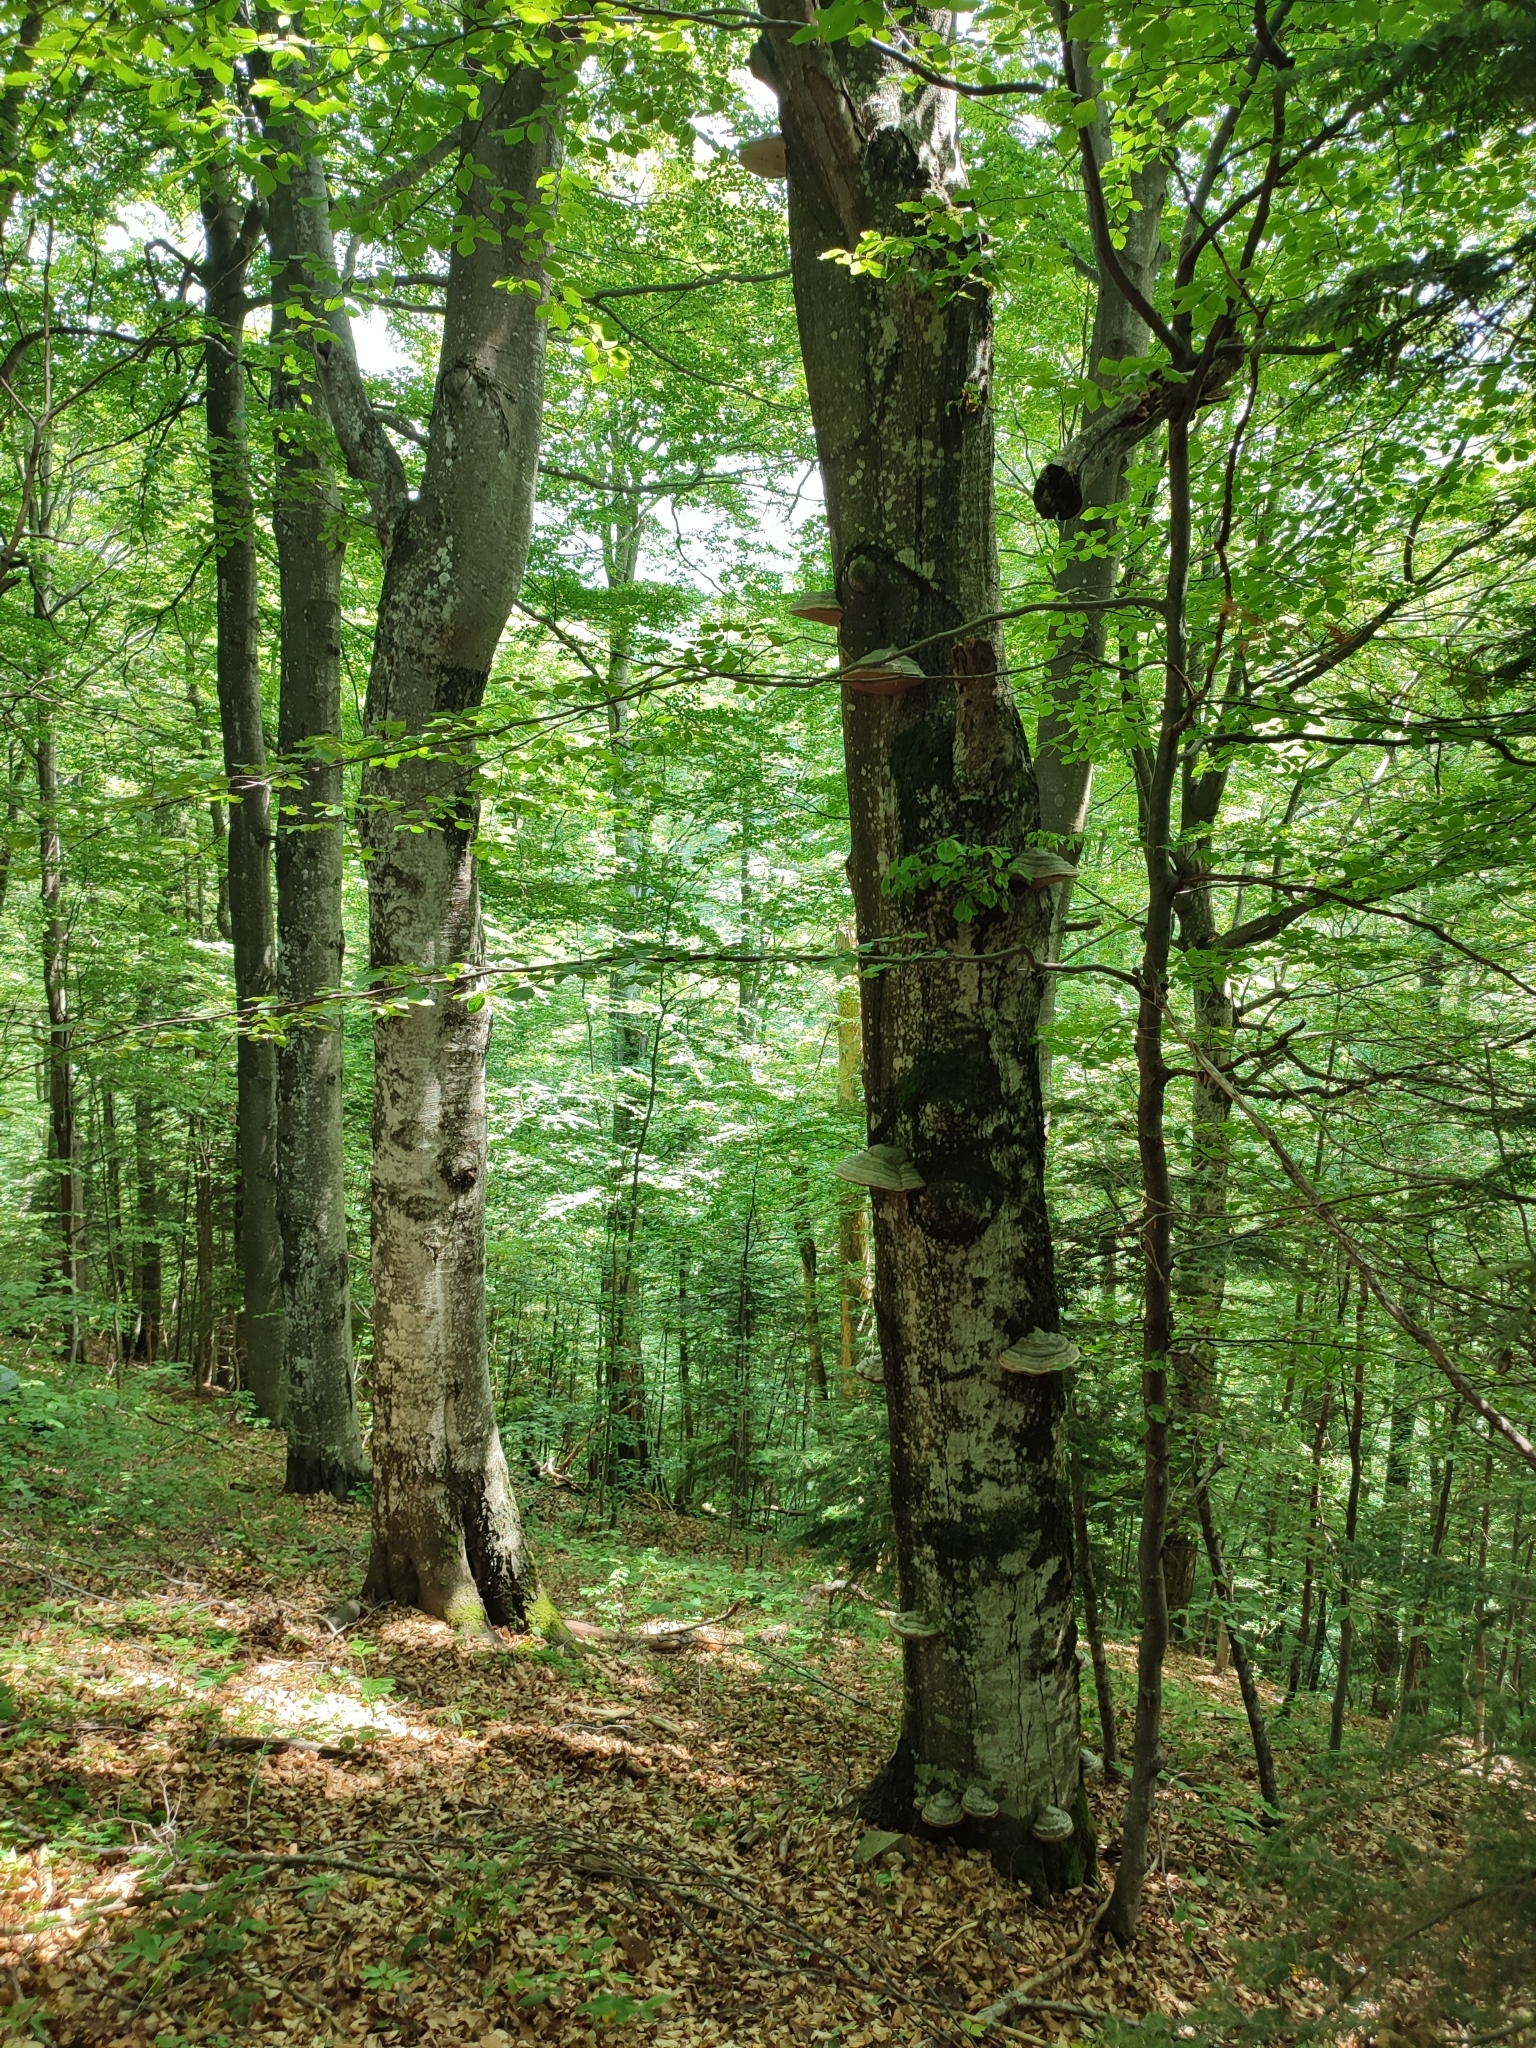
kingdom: Plantae
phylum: Tracheophyta
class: Magnoliopsida
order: Fagales
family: Fagaceae
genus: Fagus
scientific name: Fagus sylvatica
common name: Beech
